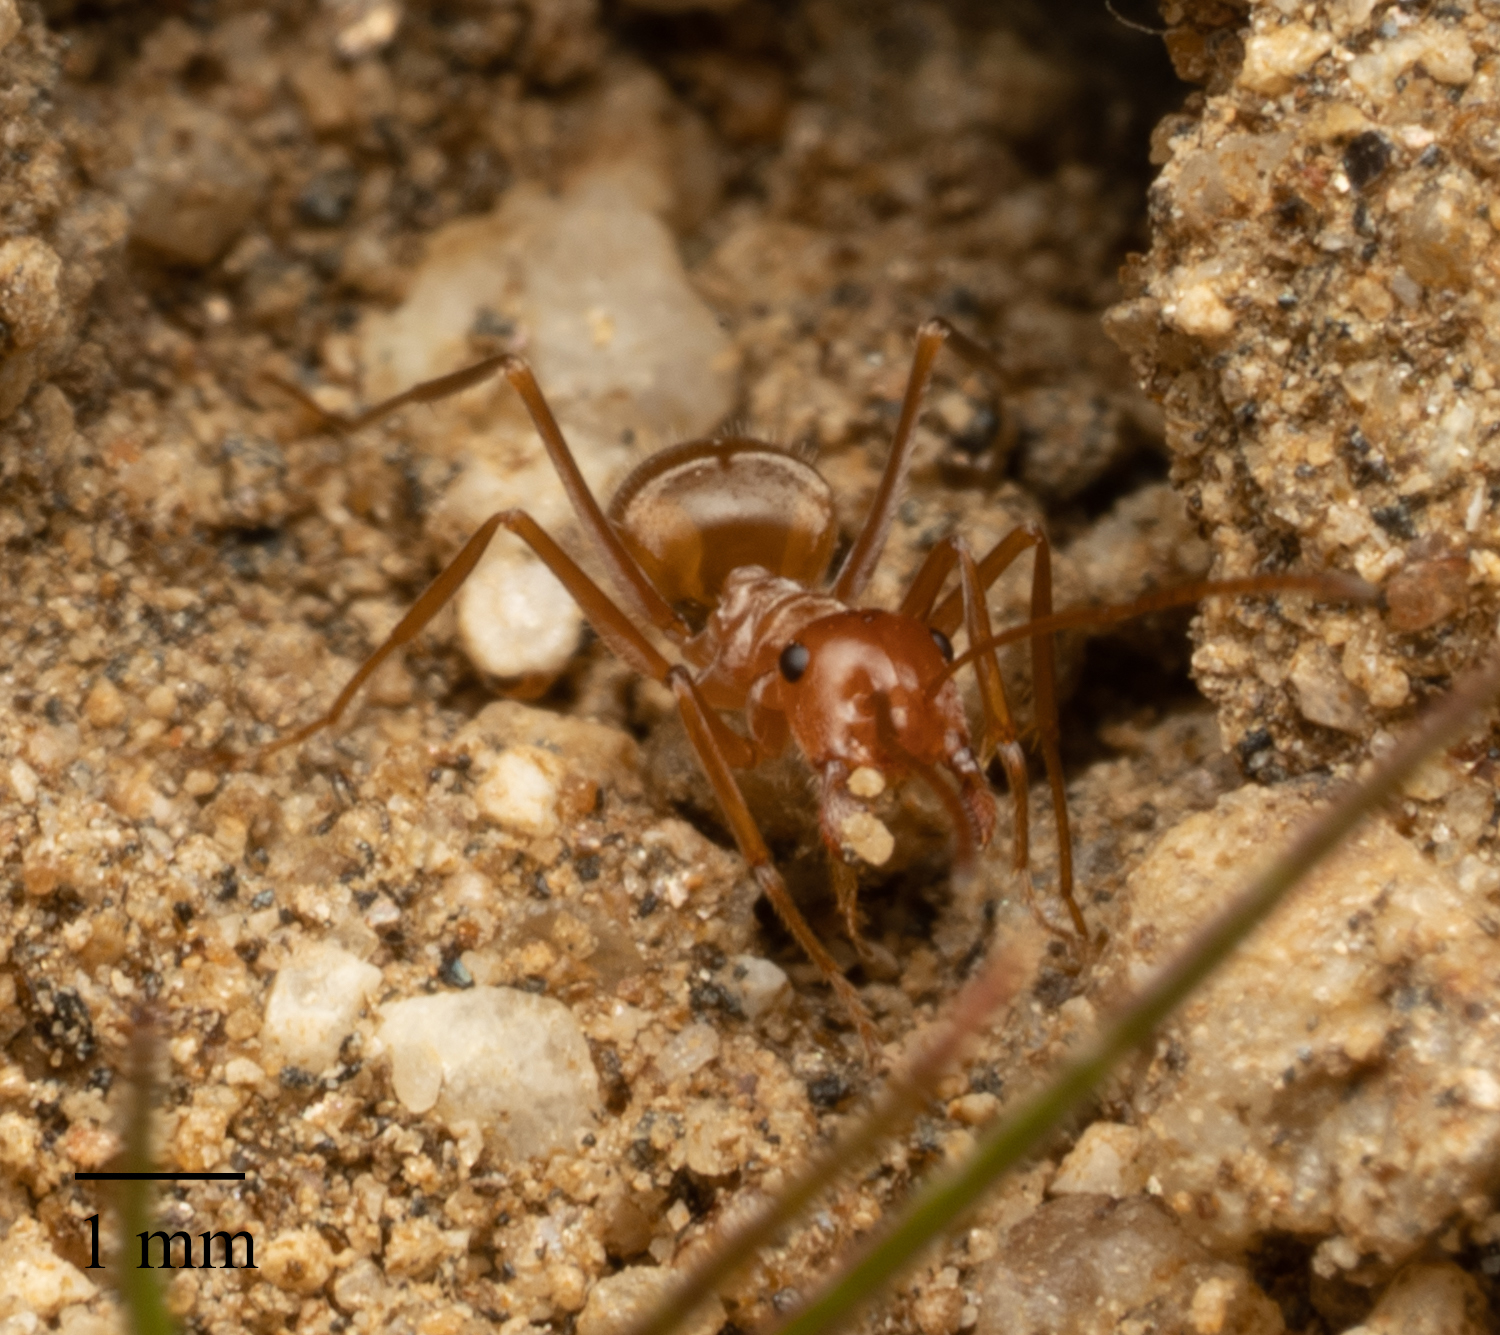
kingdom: Animalia
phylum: Arthropoda
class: Insecta
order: Hymenoptera
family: Formicidae
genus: Myrmecocystus
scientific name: Myrmecocystus wheeleri
